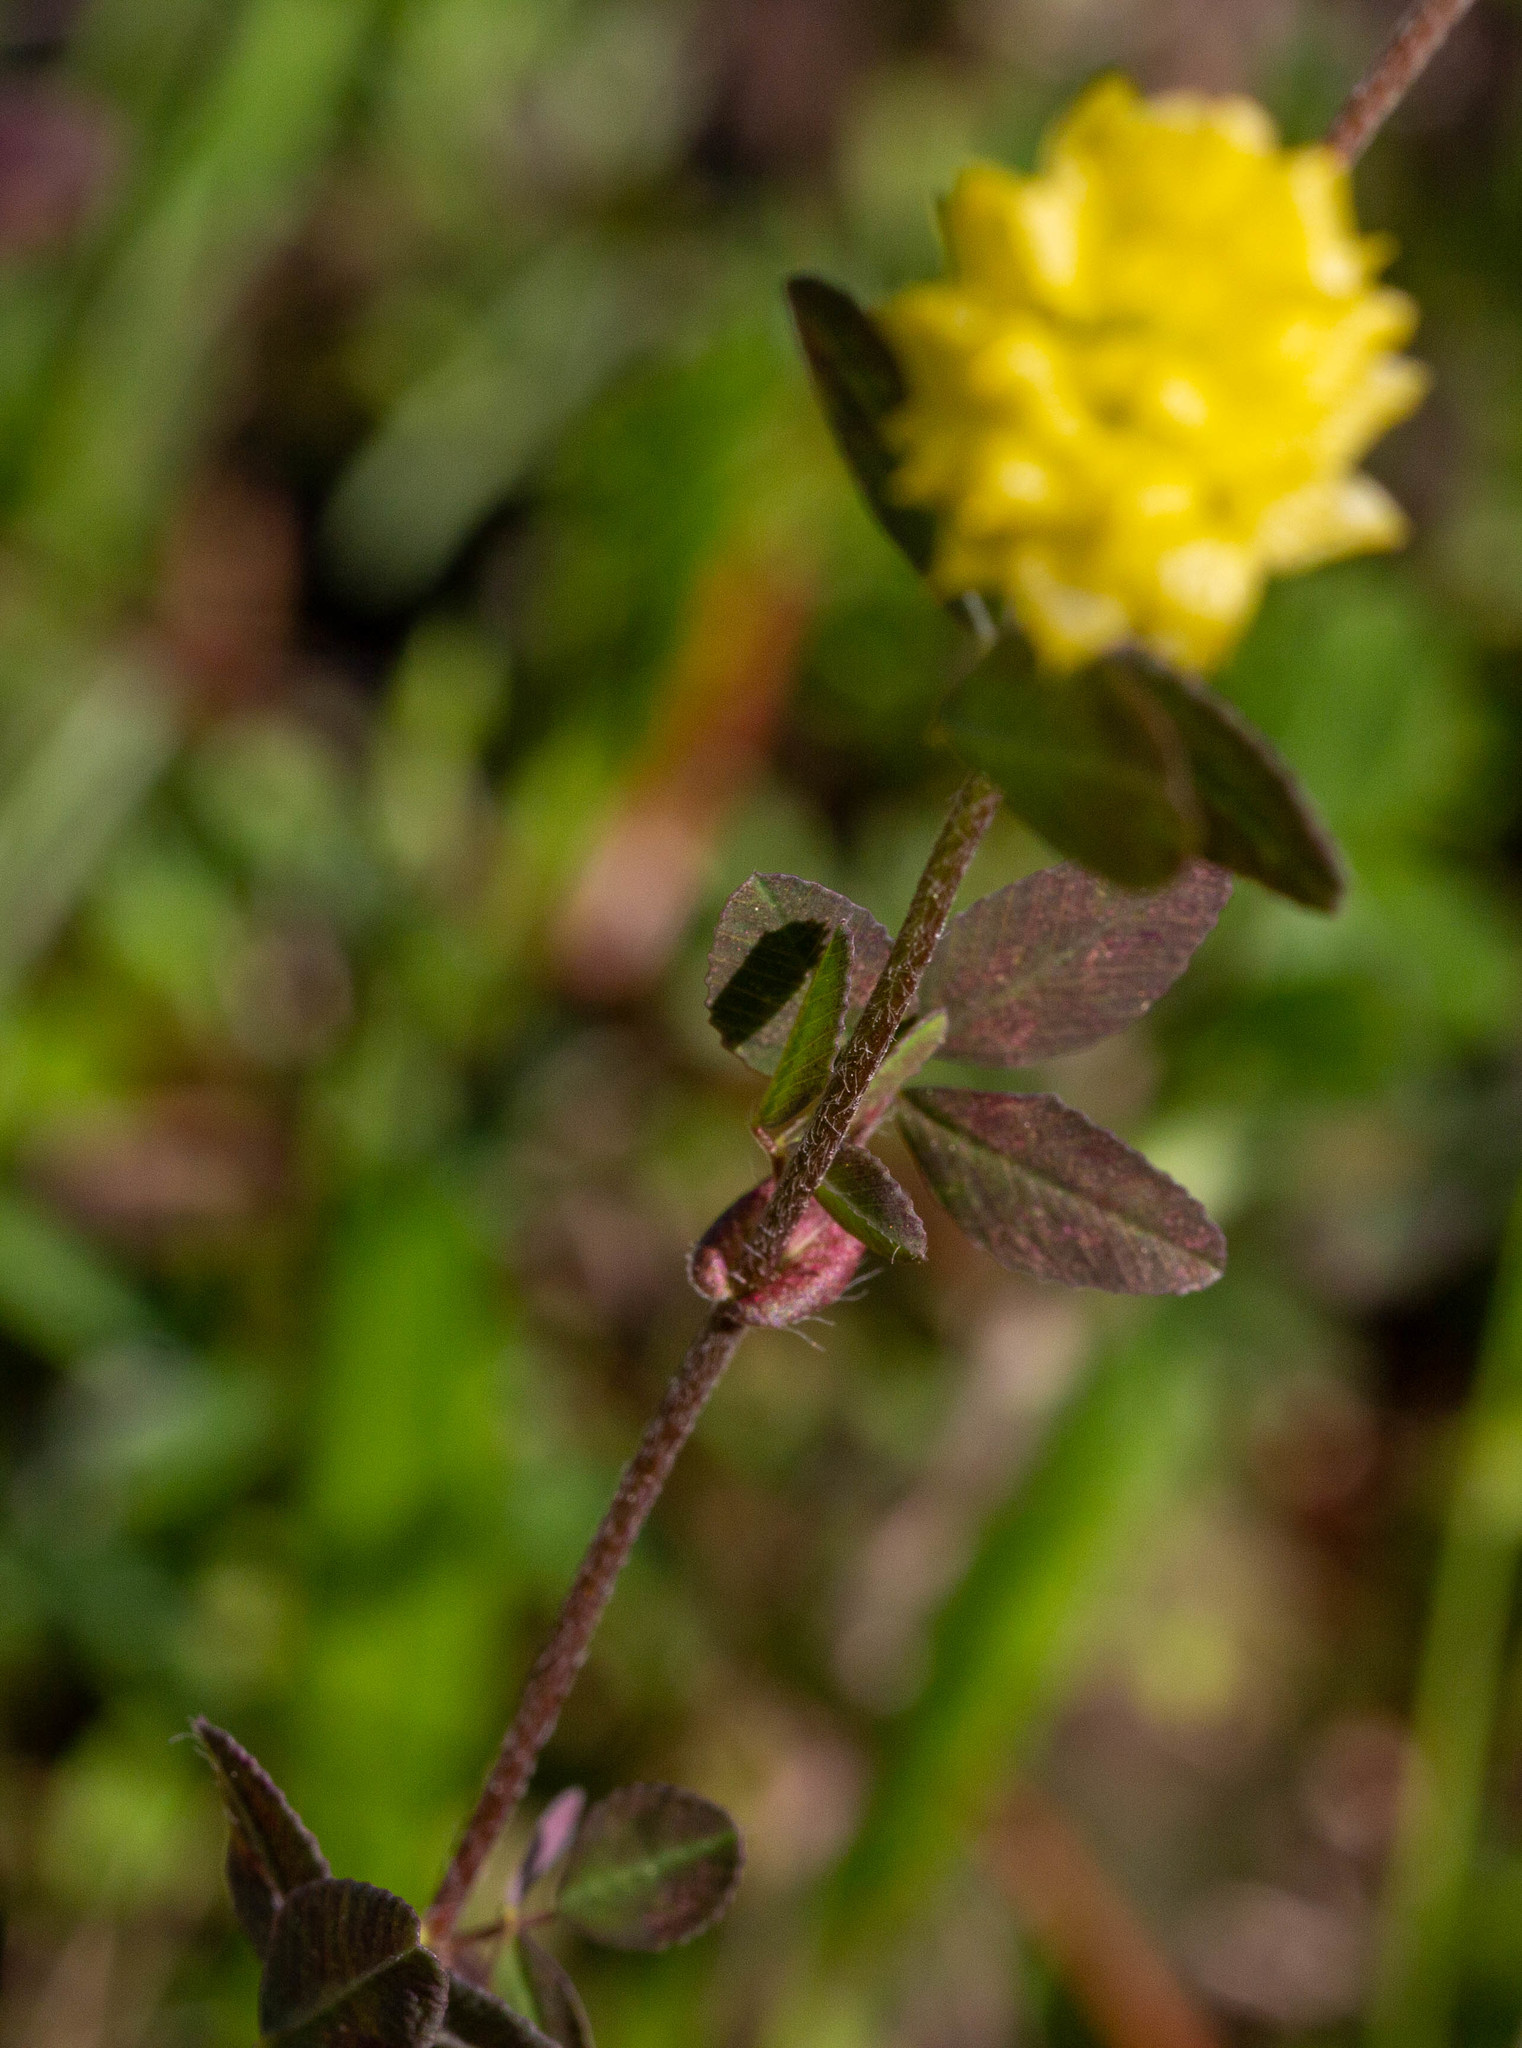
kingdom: Plantae
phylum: Tracheophyta
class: Magnoliopsida
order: Fabales
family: Fabaceae
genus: Trifolium
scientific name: Trifolium campestre
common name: Field clover
